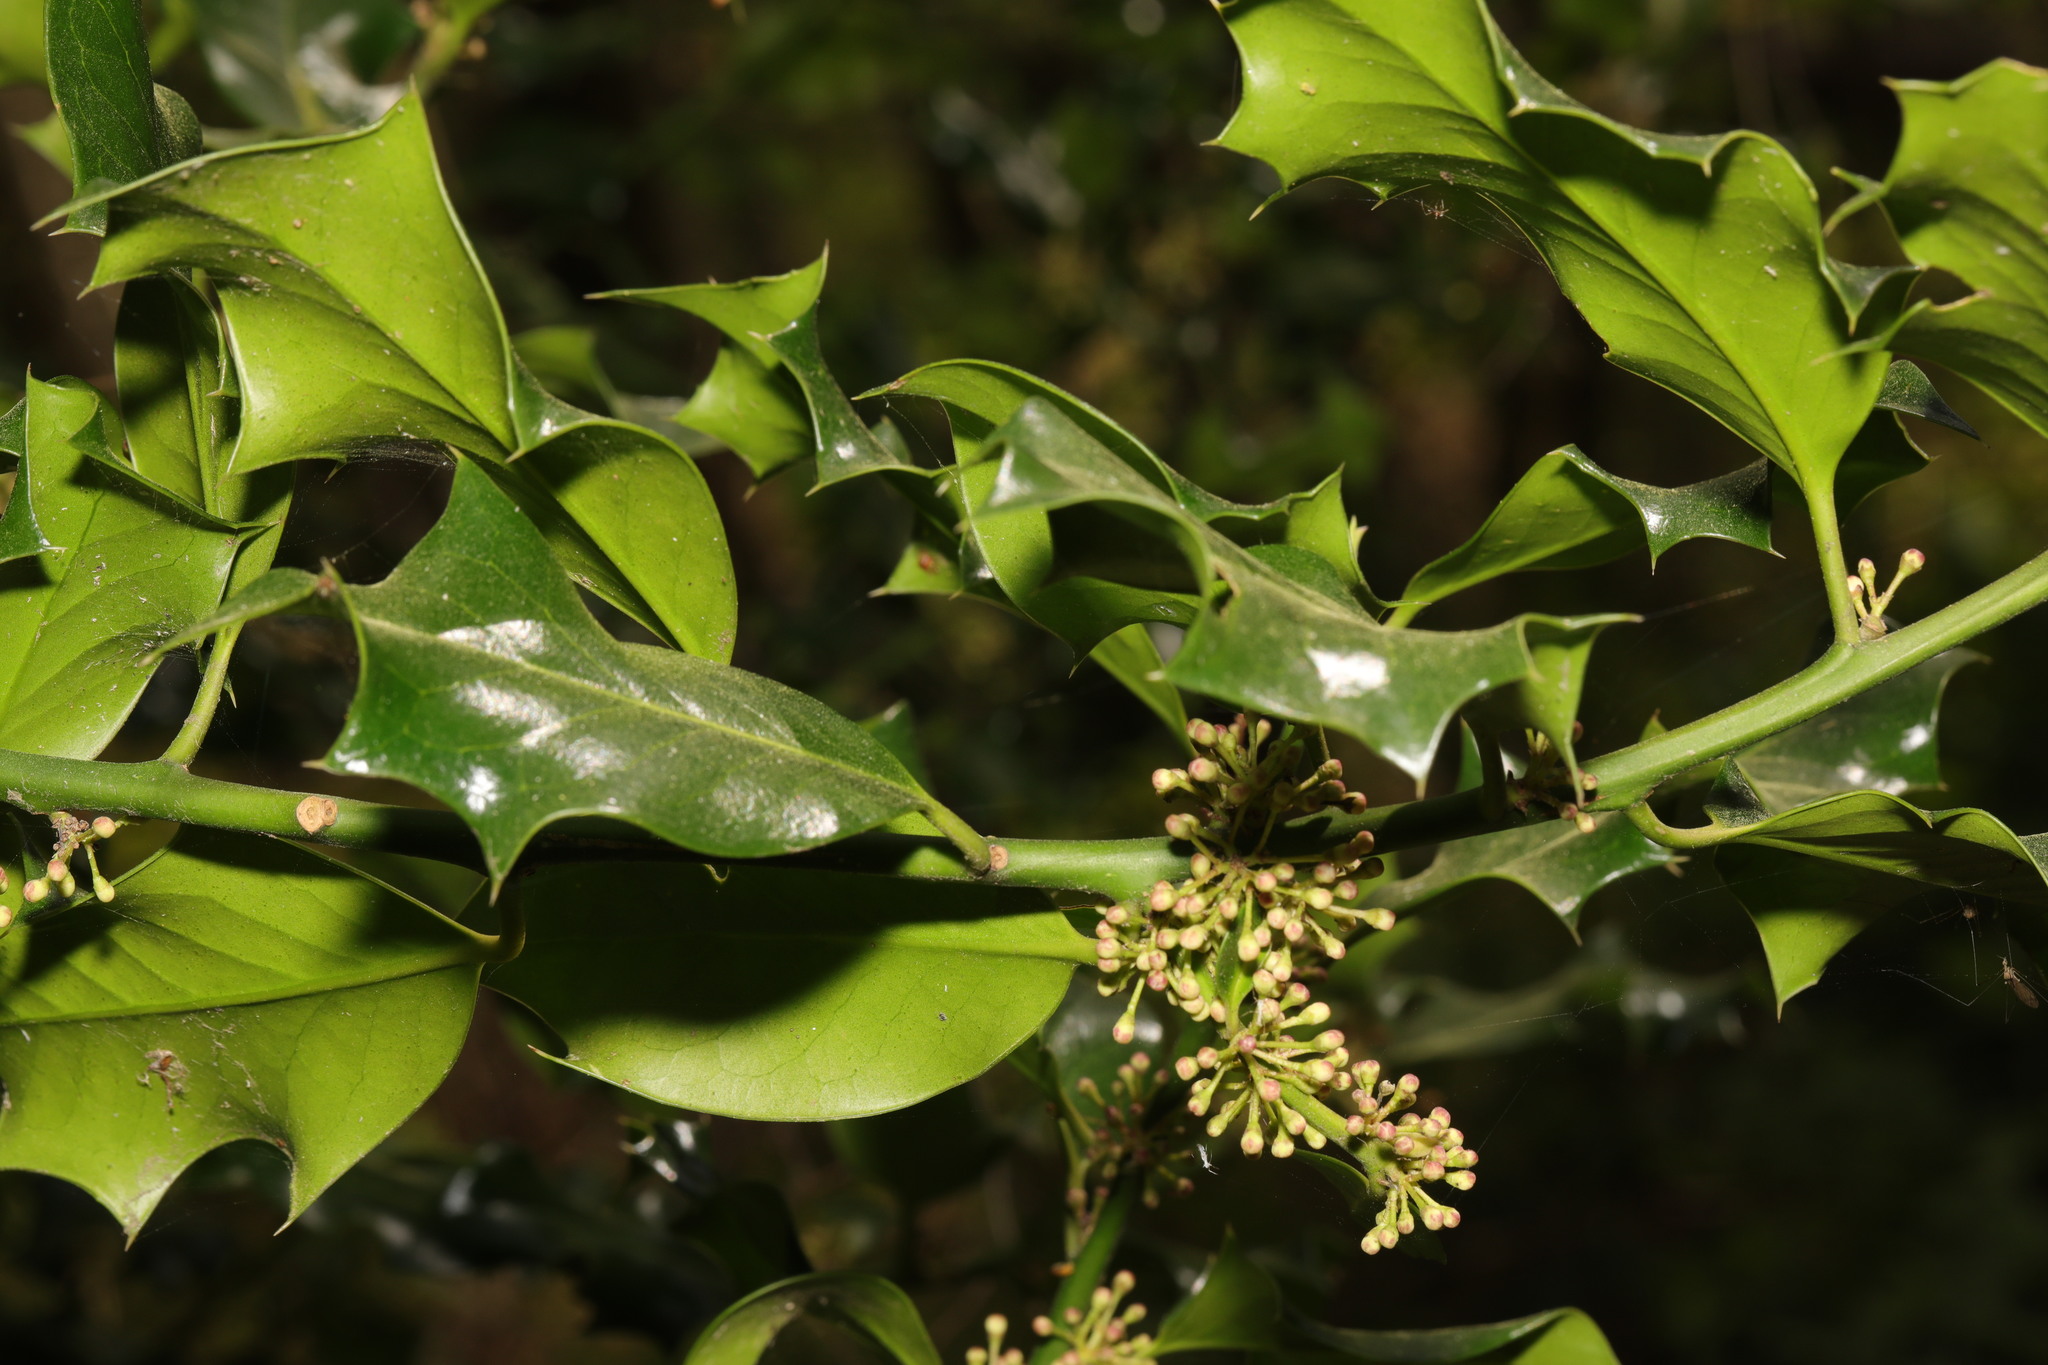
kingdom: Plantae
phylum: Tracheophyta
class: Magnoliopsida
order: Aquifoliales
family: Aquifoliaceae
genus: Ilex
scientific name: Ilex aquifolium
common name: English holly
